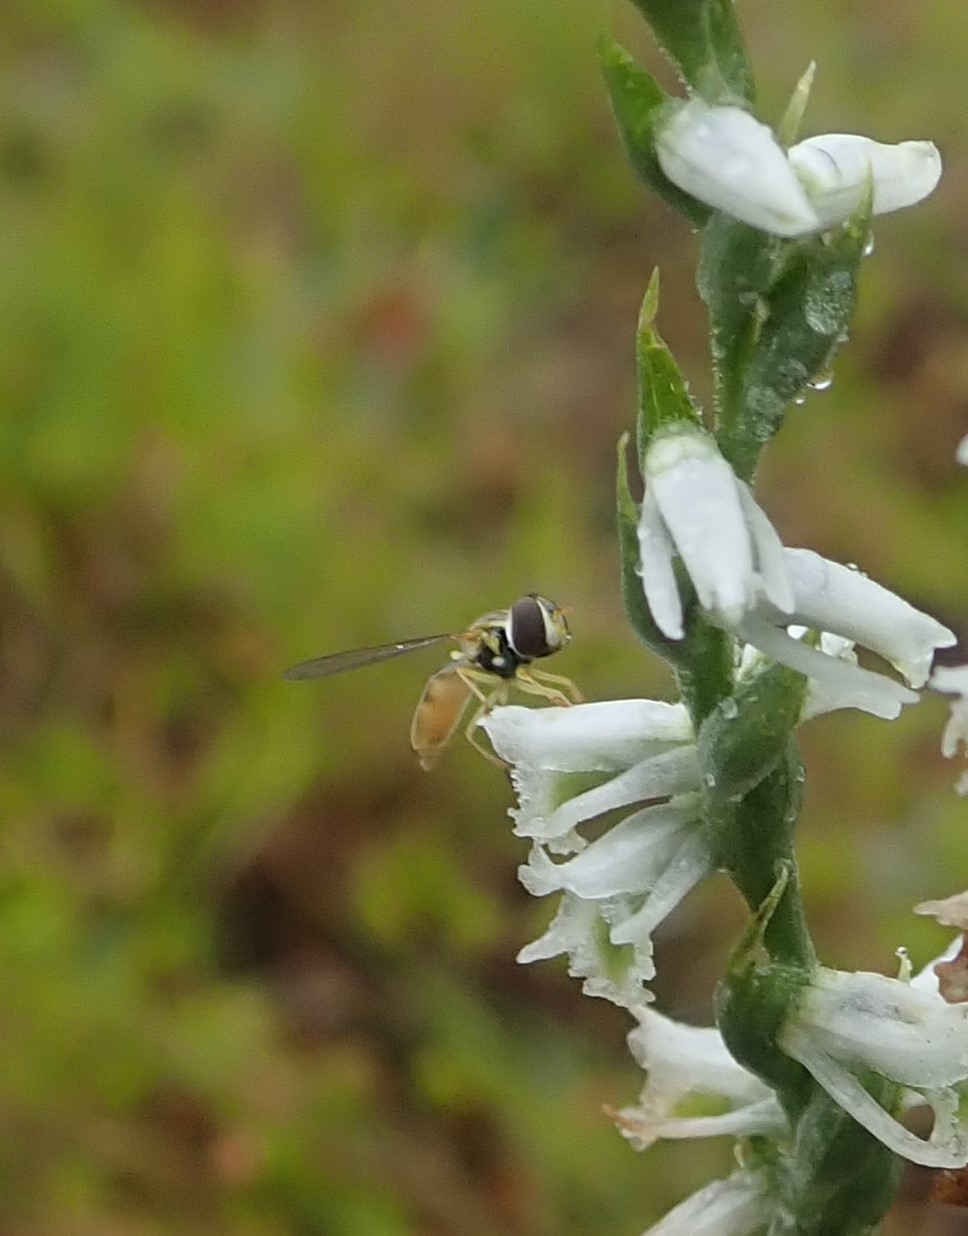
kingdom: Animalia
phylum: Arthropoda
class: Insecta
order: Diptera
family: Syrphidae
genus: Toxomerus
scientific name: Toxomerus marginatus
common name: Syrphid fly
